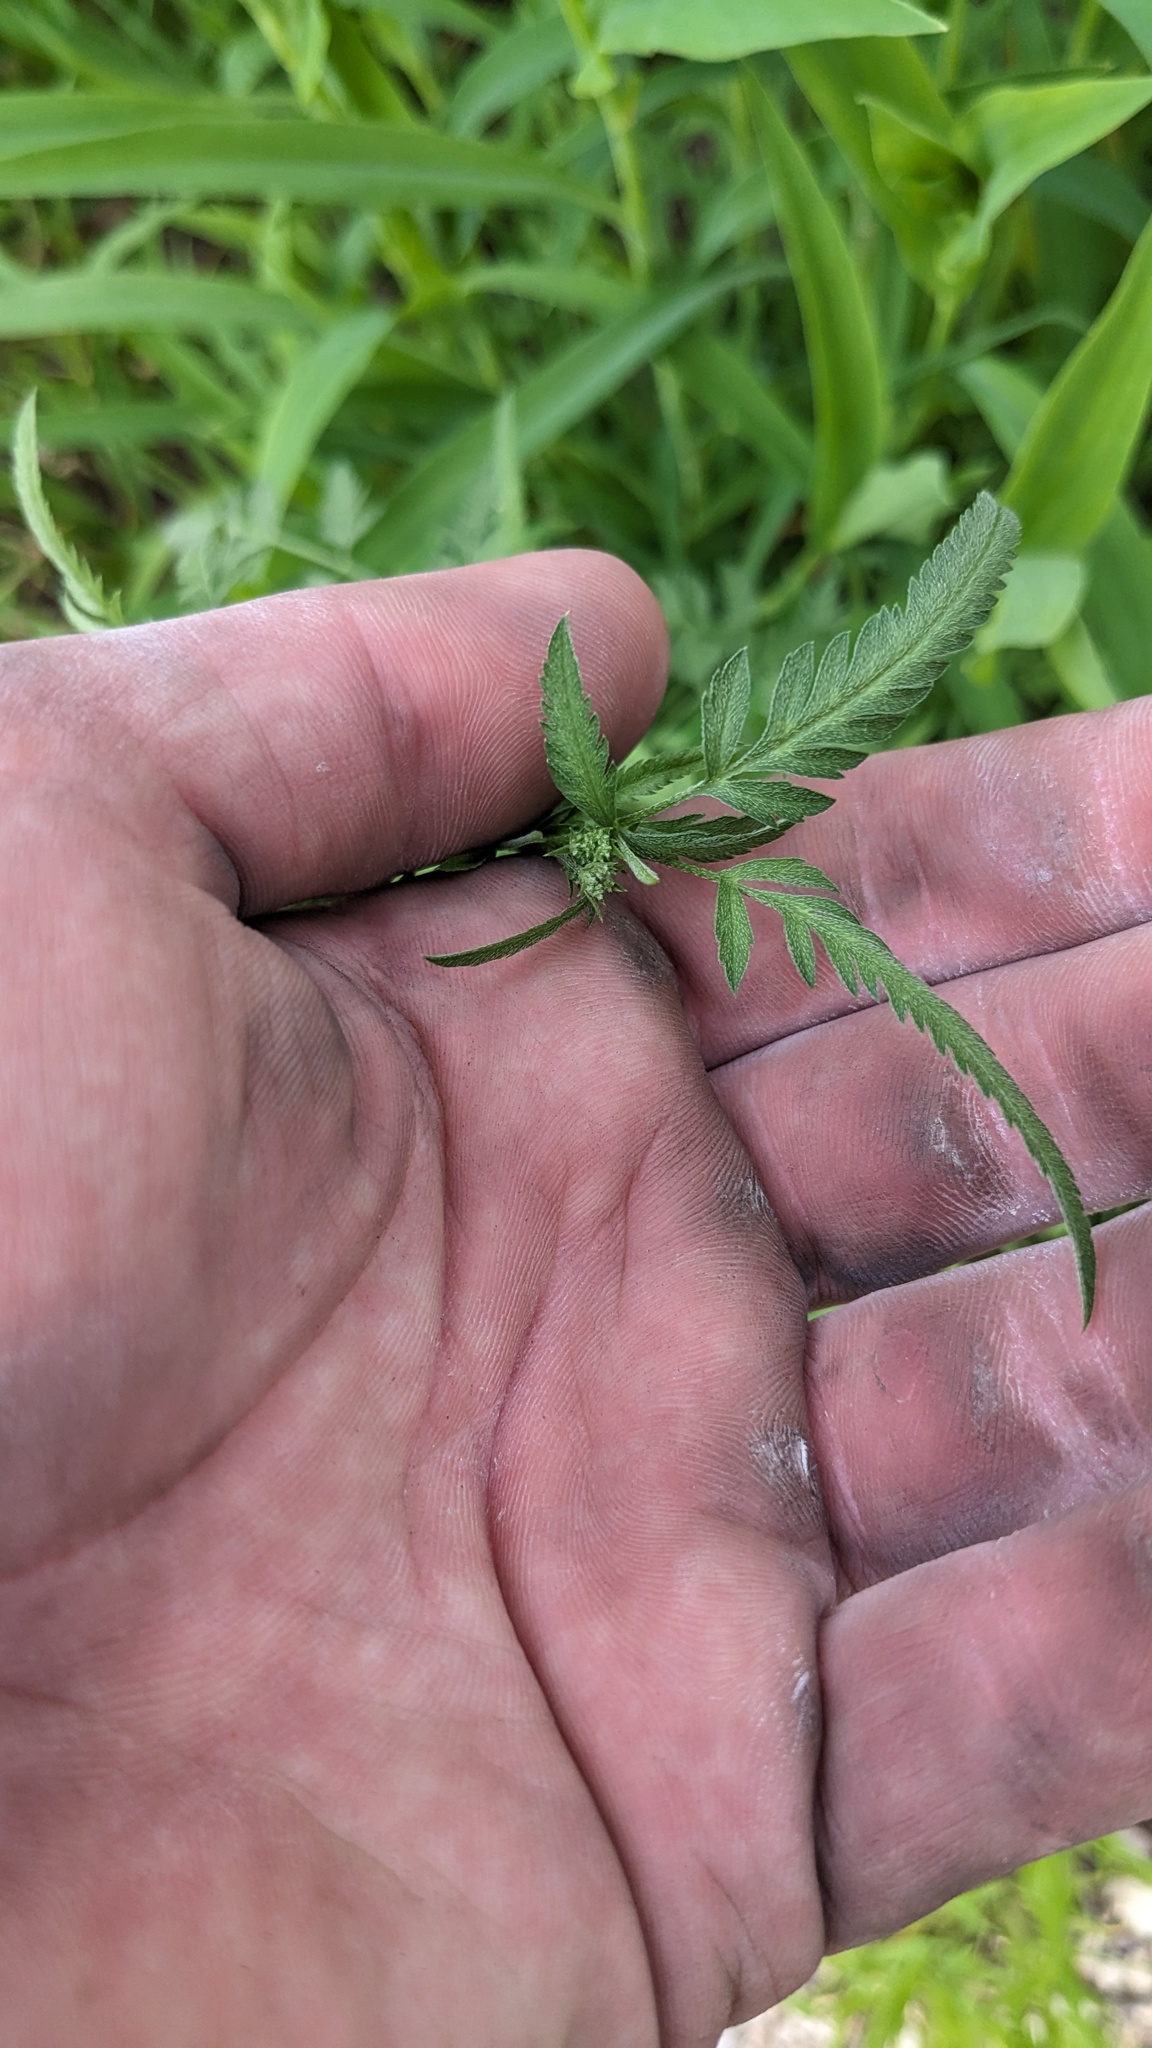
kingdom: Plantae
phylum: Tracheophyta
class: Magnoliopsida
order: Apiales
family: Apiaceae
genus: Torilis
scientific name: Torilis arvensis
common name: Spreading hedge-parsley
